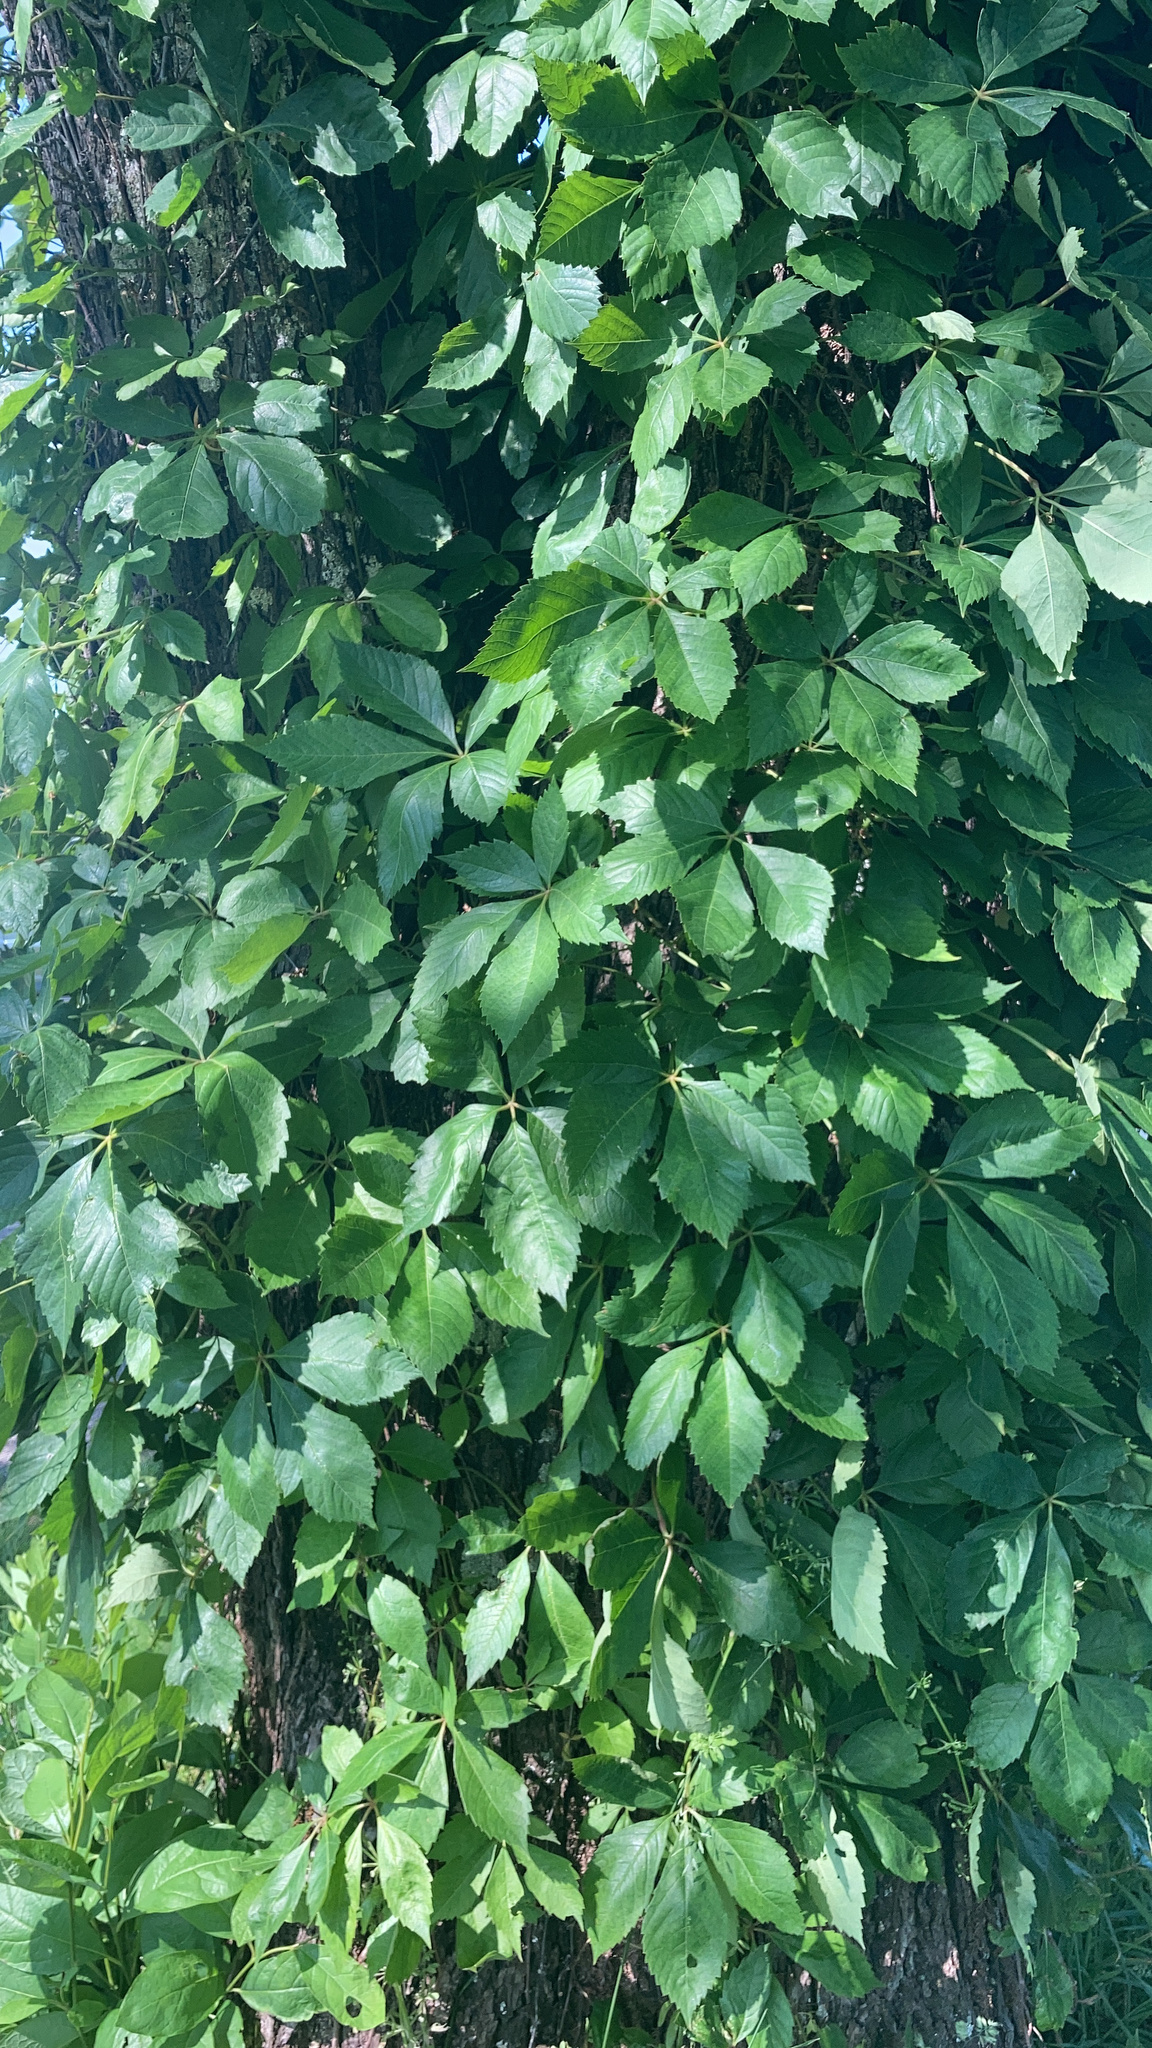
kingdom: Plantae
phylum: Tracheophyta
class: Magnoliopsida
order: Vitales
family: Vitaceae
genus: Parthenocissus
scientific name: Parthenocissus quinquefolia
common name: Virginia-creeper
